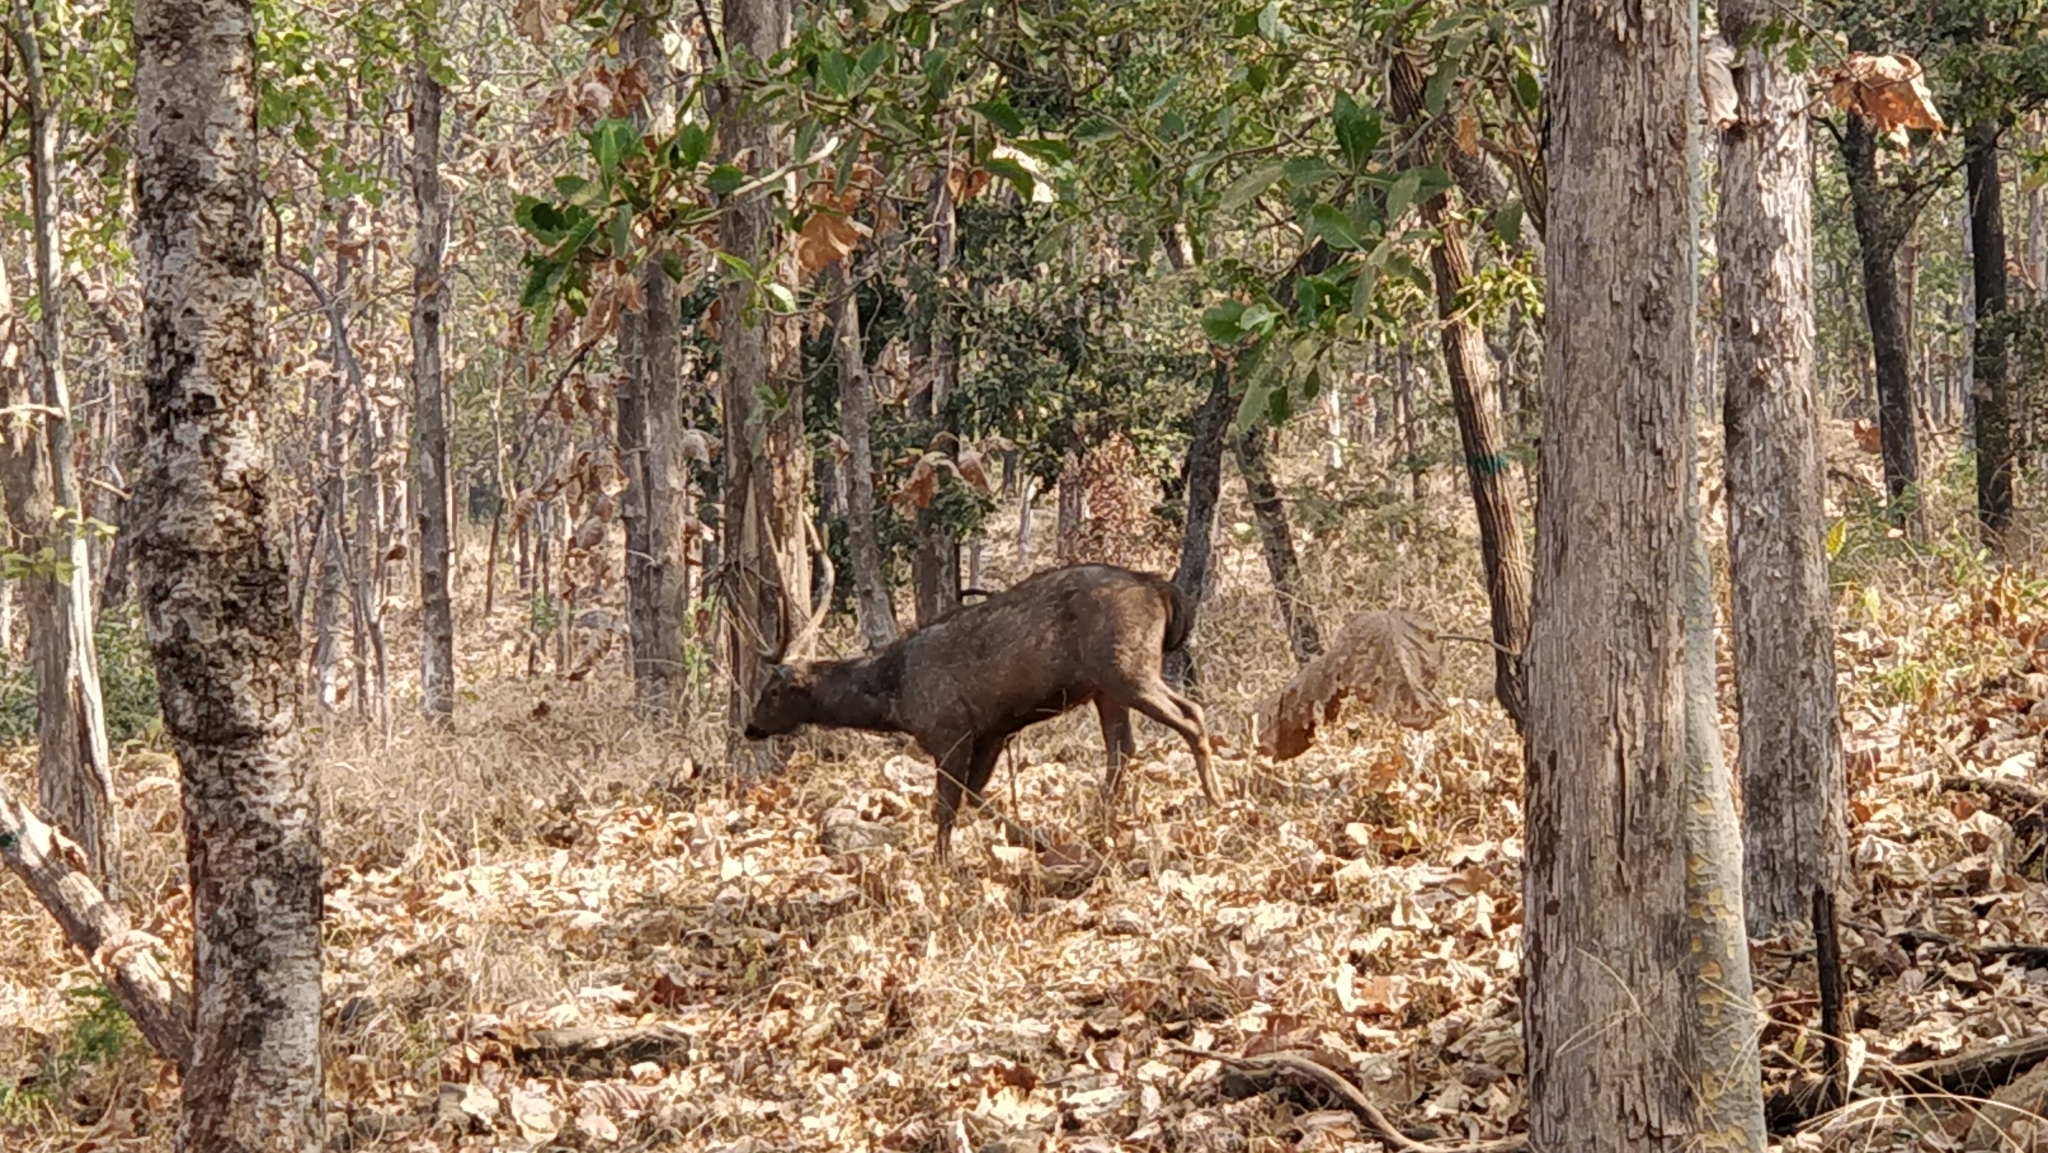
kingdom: Animalia
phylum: Chordata
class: Mammalia
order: Artiodactyla
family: Cervidae
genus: Rusa
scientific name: Rusa unicolor
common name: Sambar
